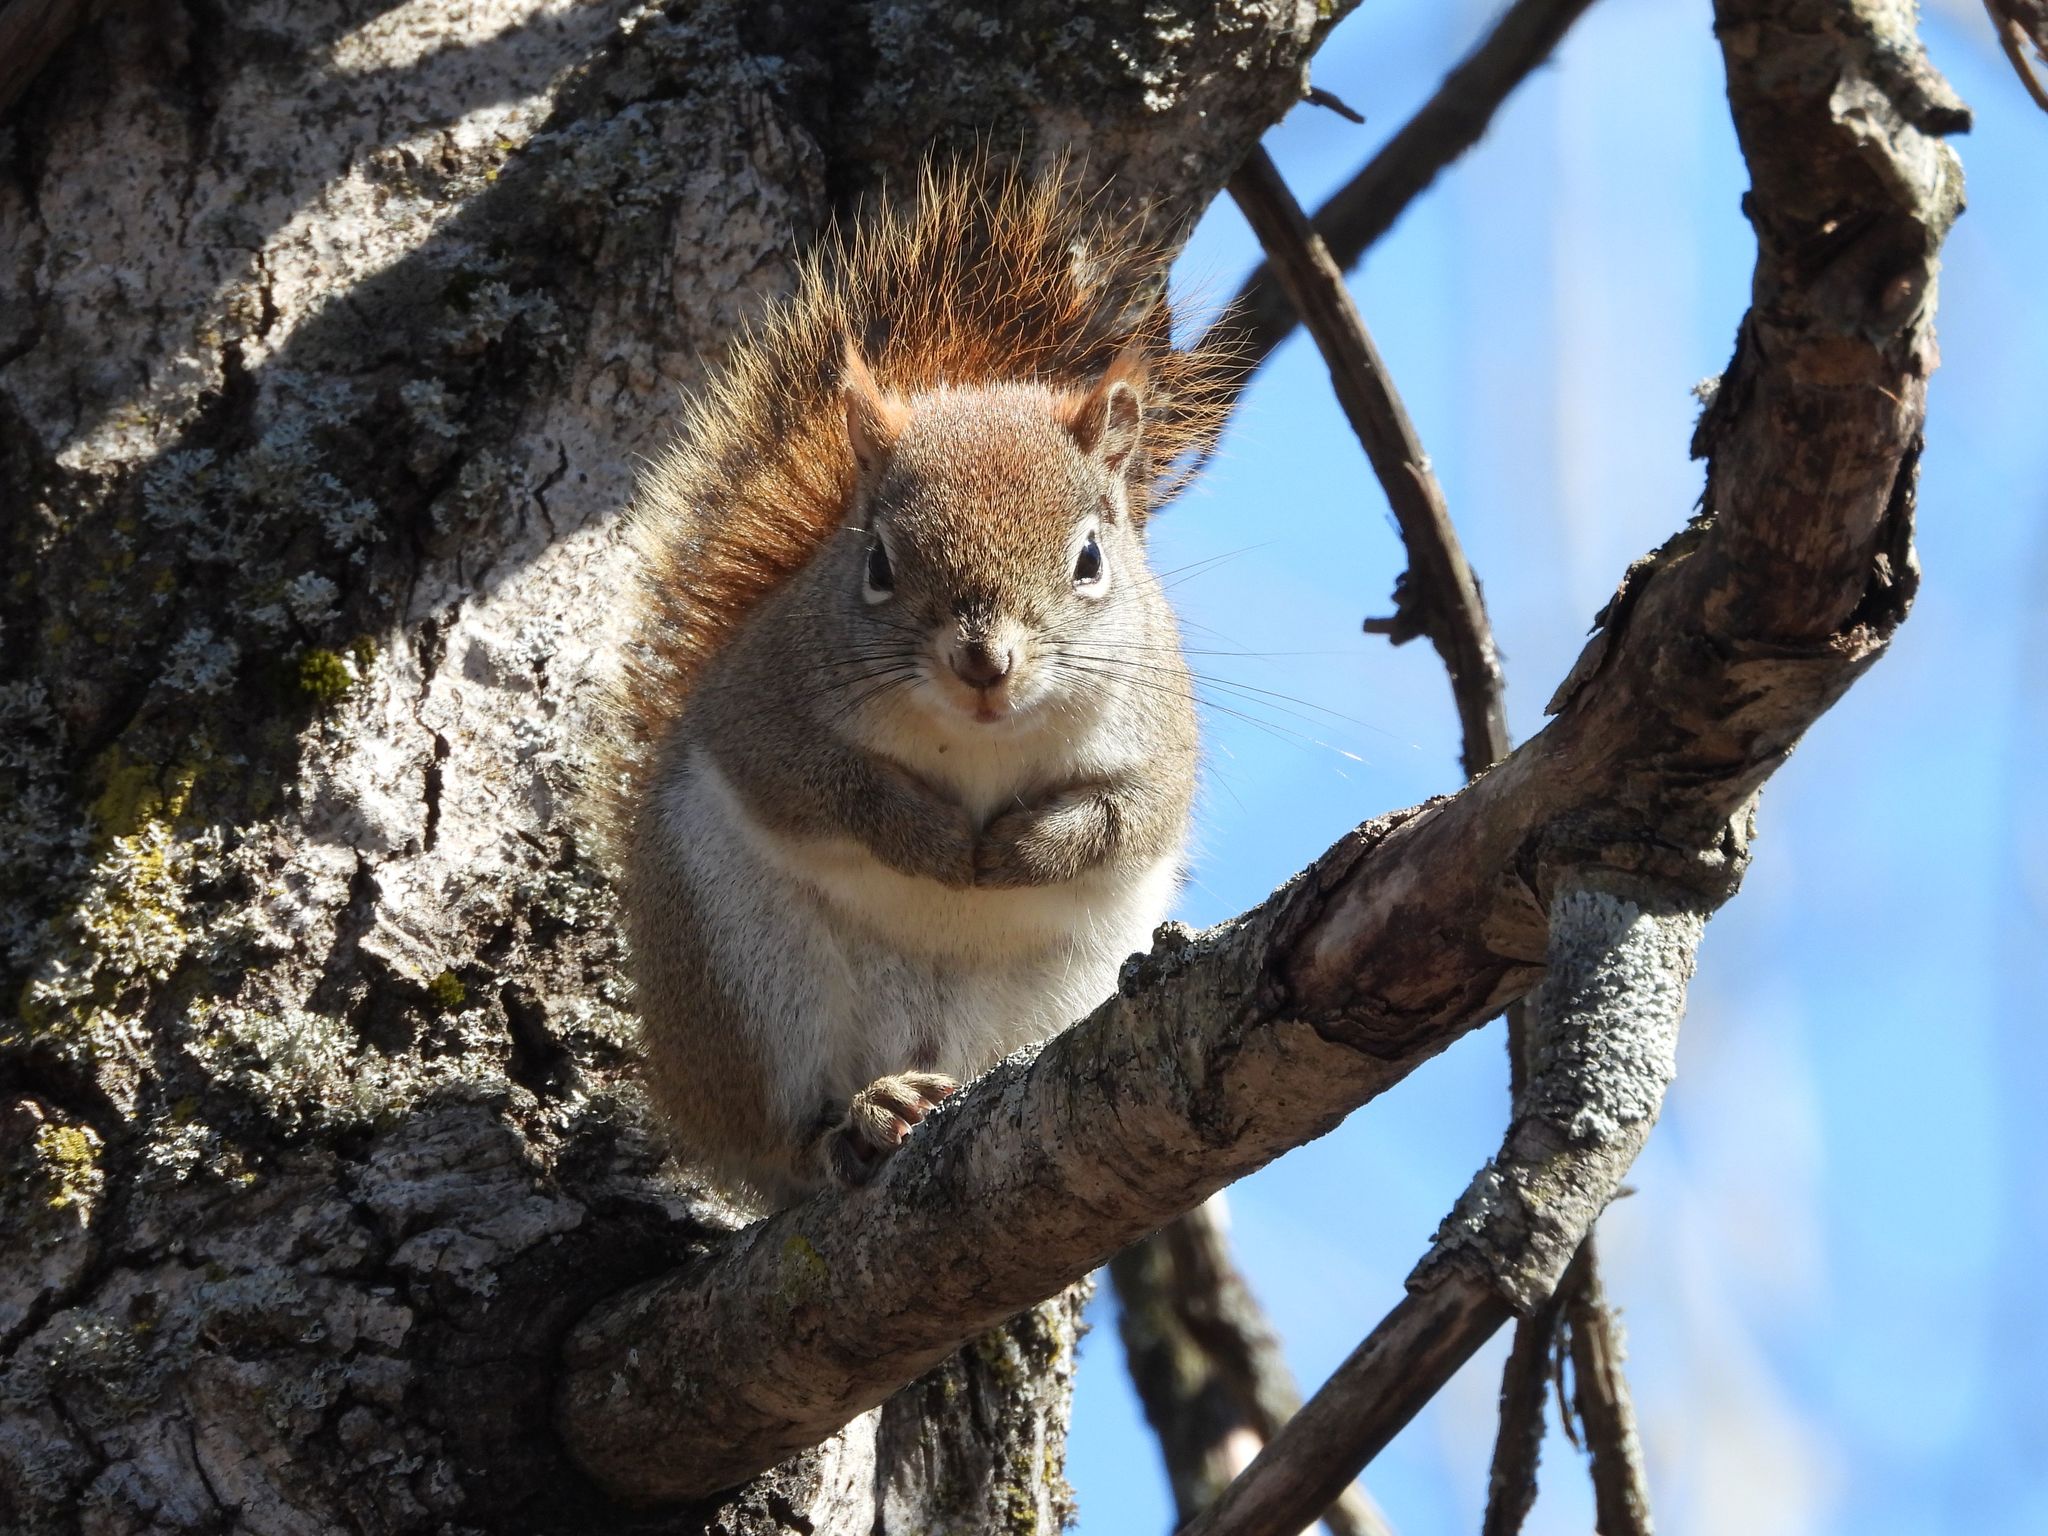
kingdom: Animalia
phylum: Chordata
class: Mammalia
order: Rodentia
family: Sciuridae
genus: Tamiasciurus
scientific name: Tamiasciurus hudsonicus
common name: Red squirrel
